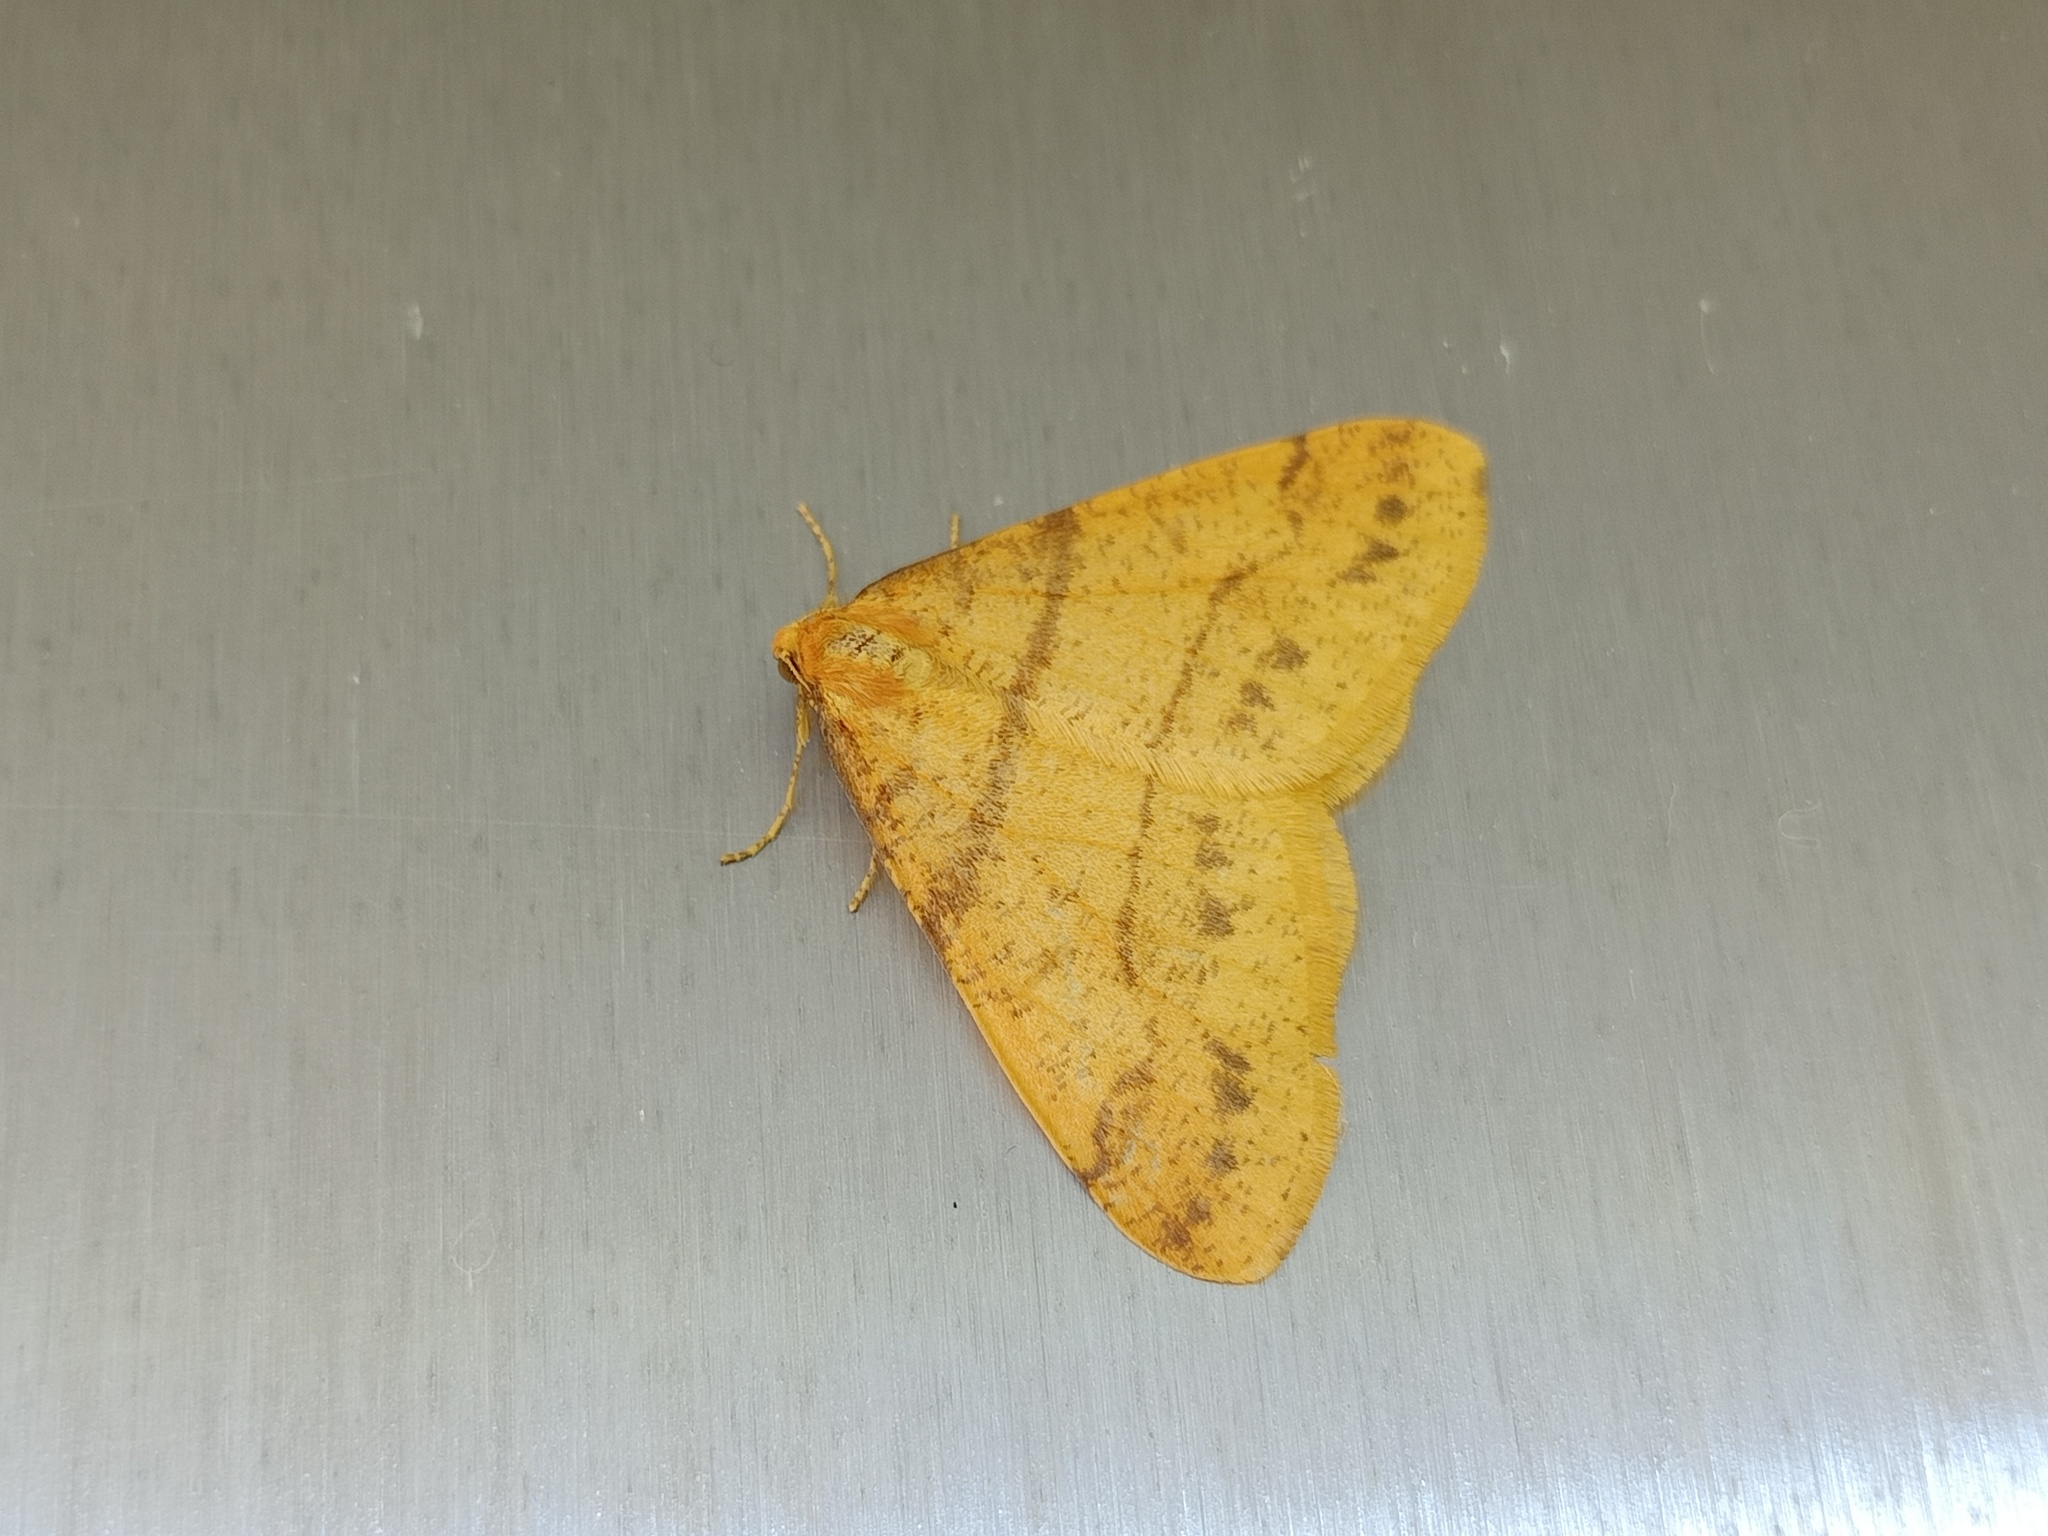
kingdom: Animalia
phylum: Arthropoda
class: Insecta
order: Lepidoptera
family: Geometridae
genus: Agriopis
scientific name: Agriopis aurantiaria
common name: Scarce umber
